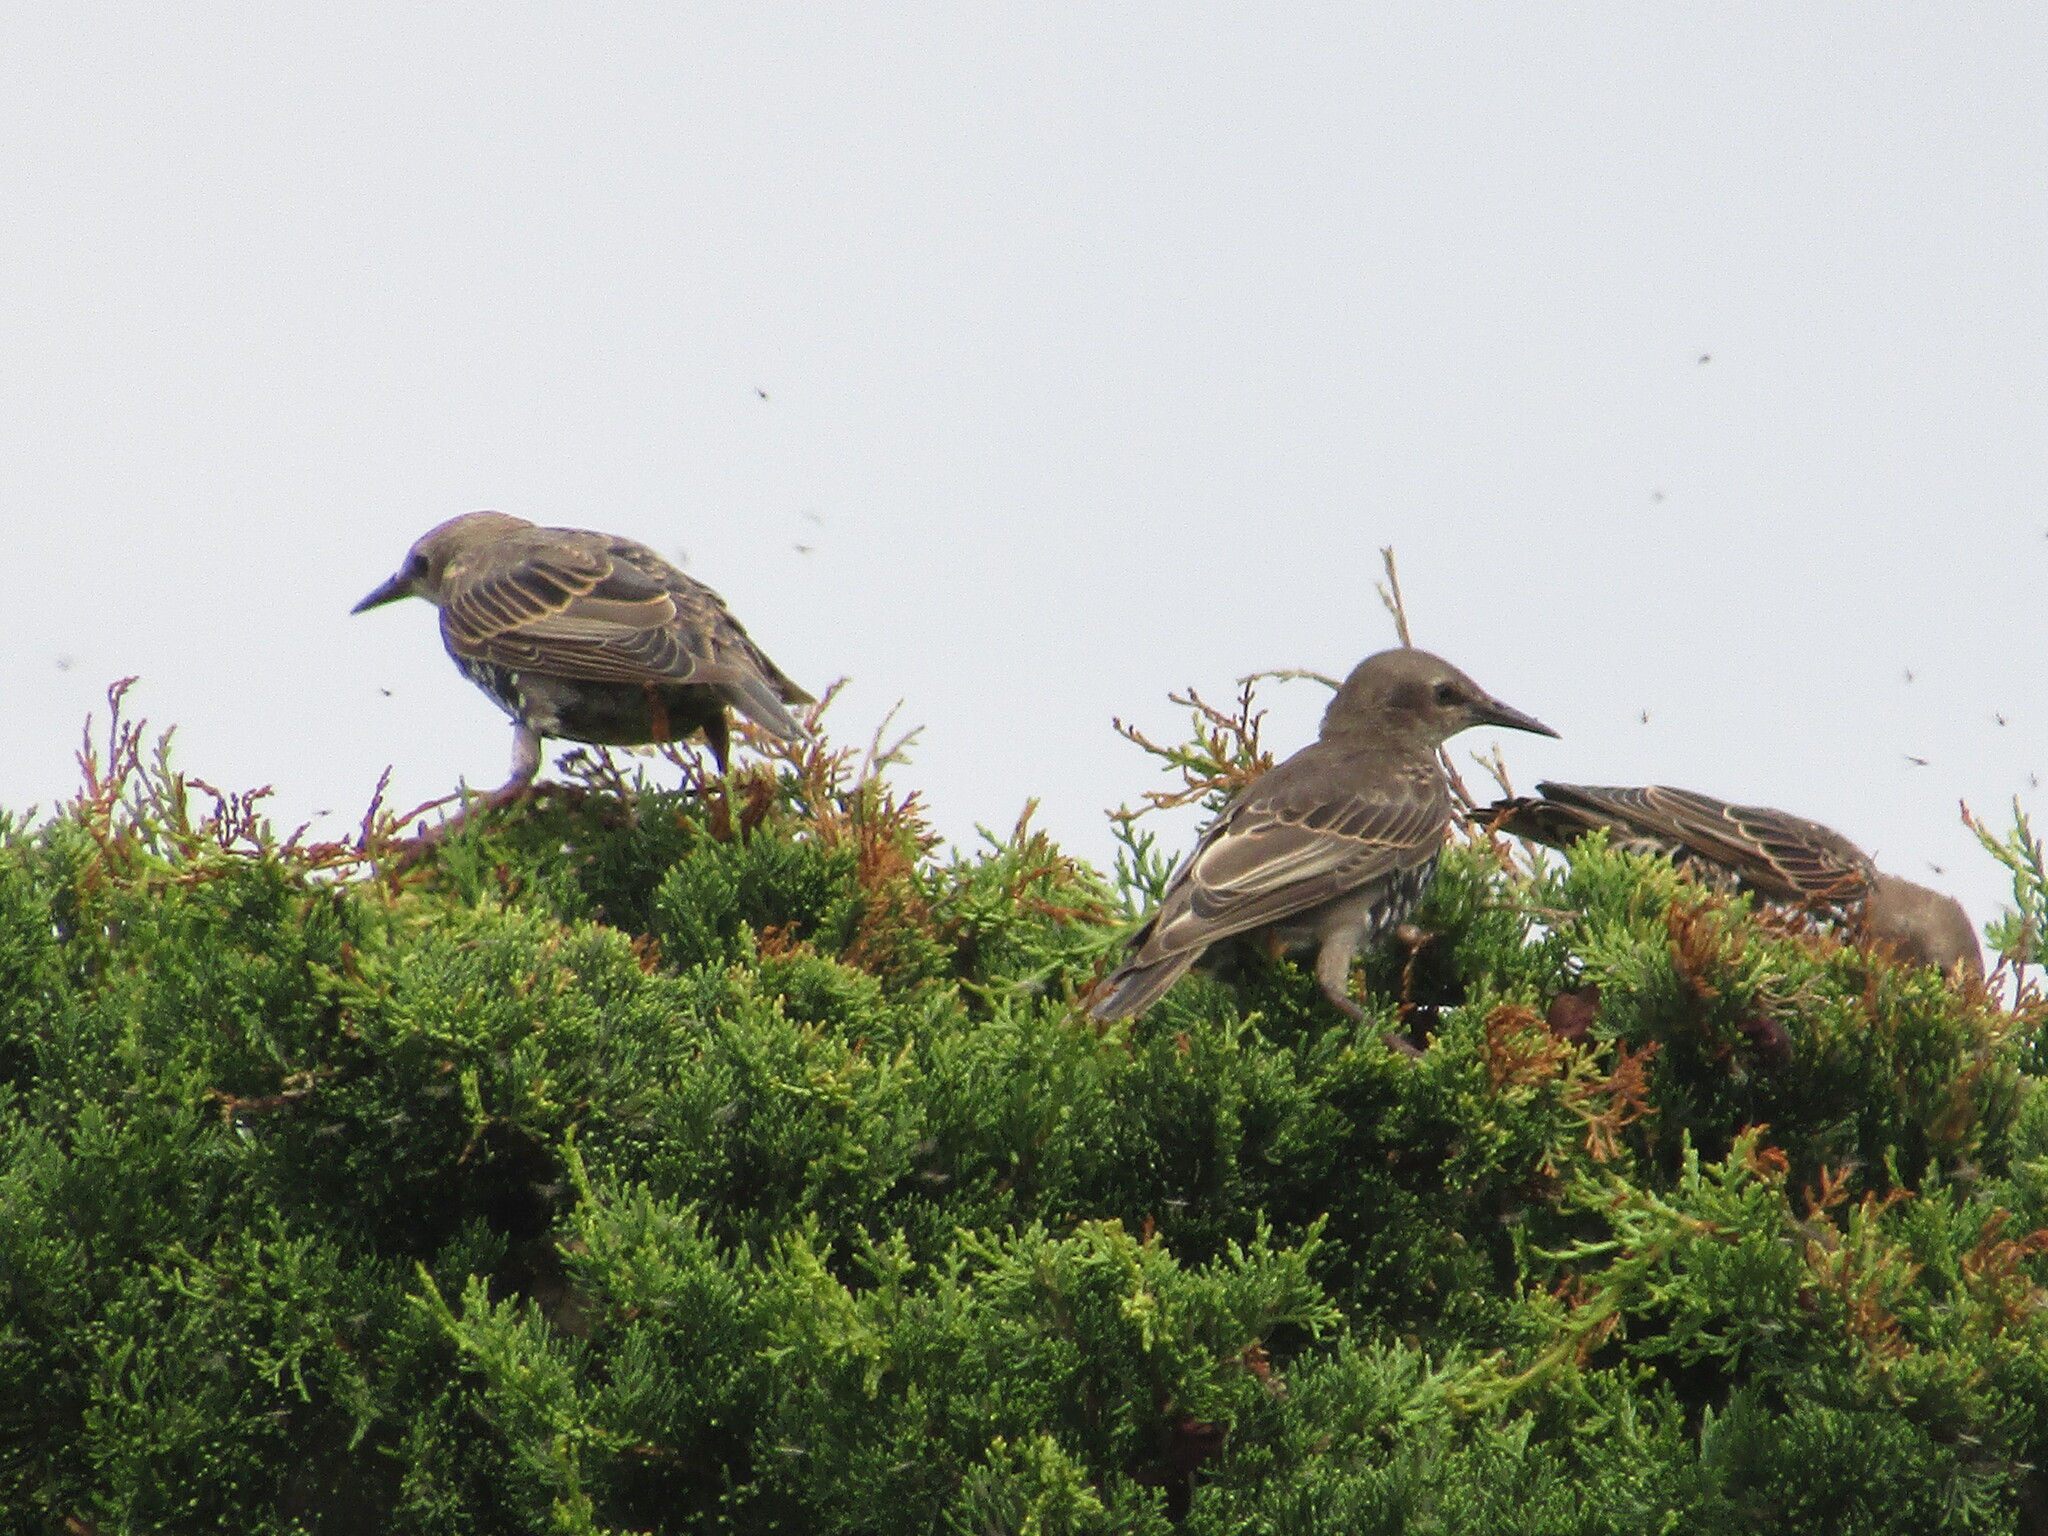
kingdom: Animalia
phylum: Chordata
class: Aves
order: Passeriformes
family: Sturnidae
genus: Sturnus
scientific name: Sturnus vulgaris
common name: Common starling
